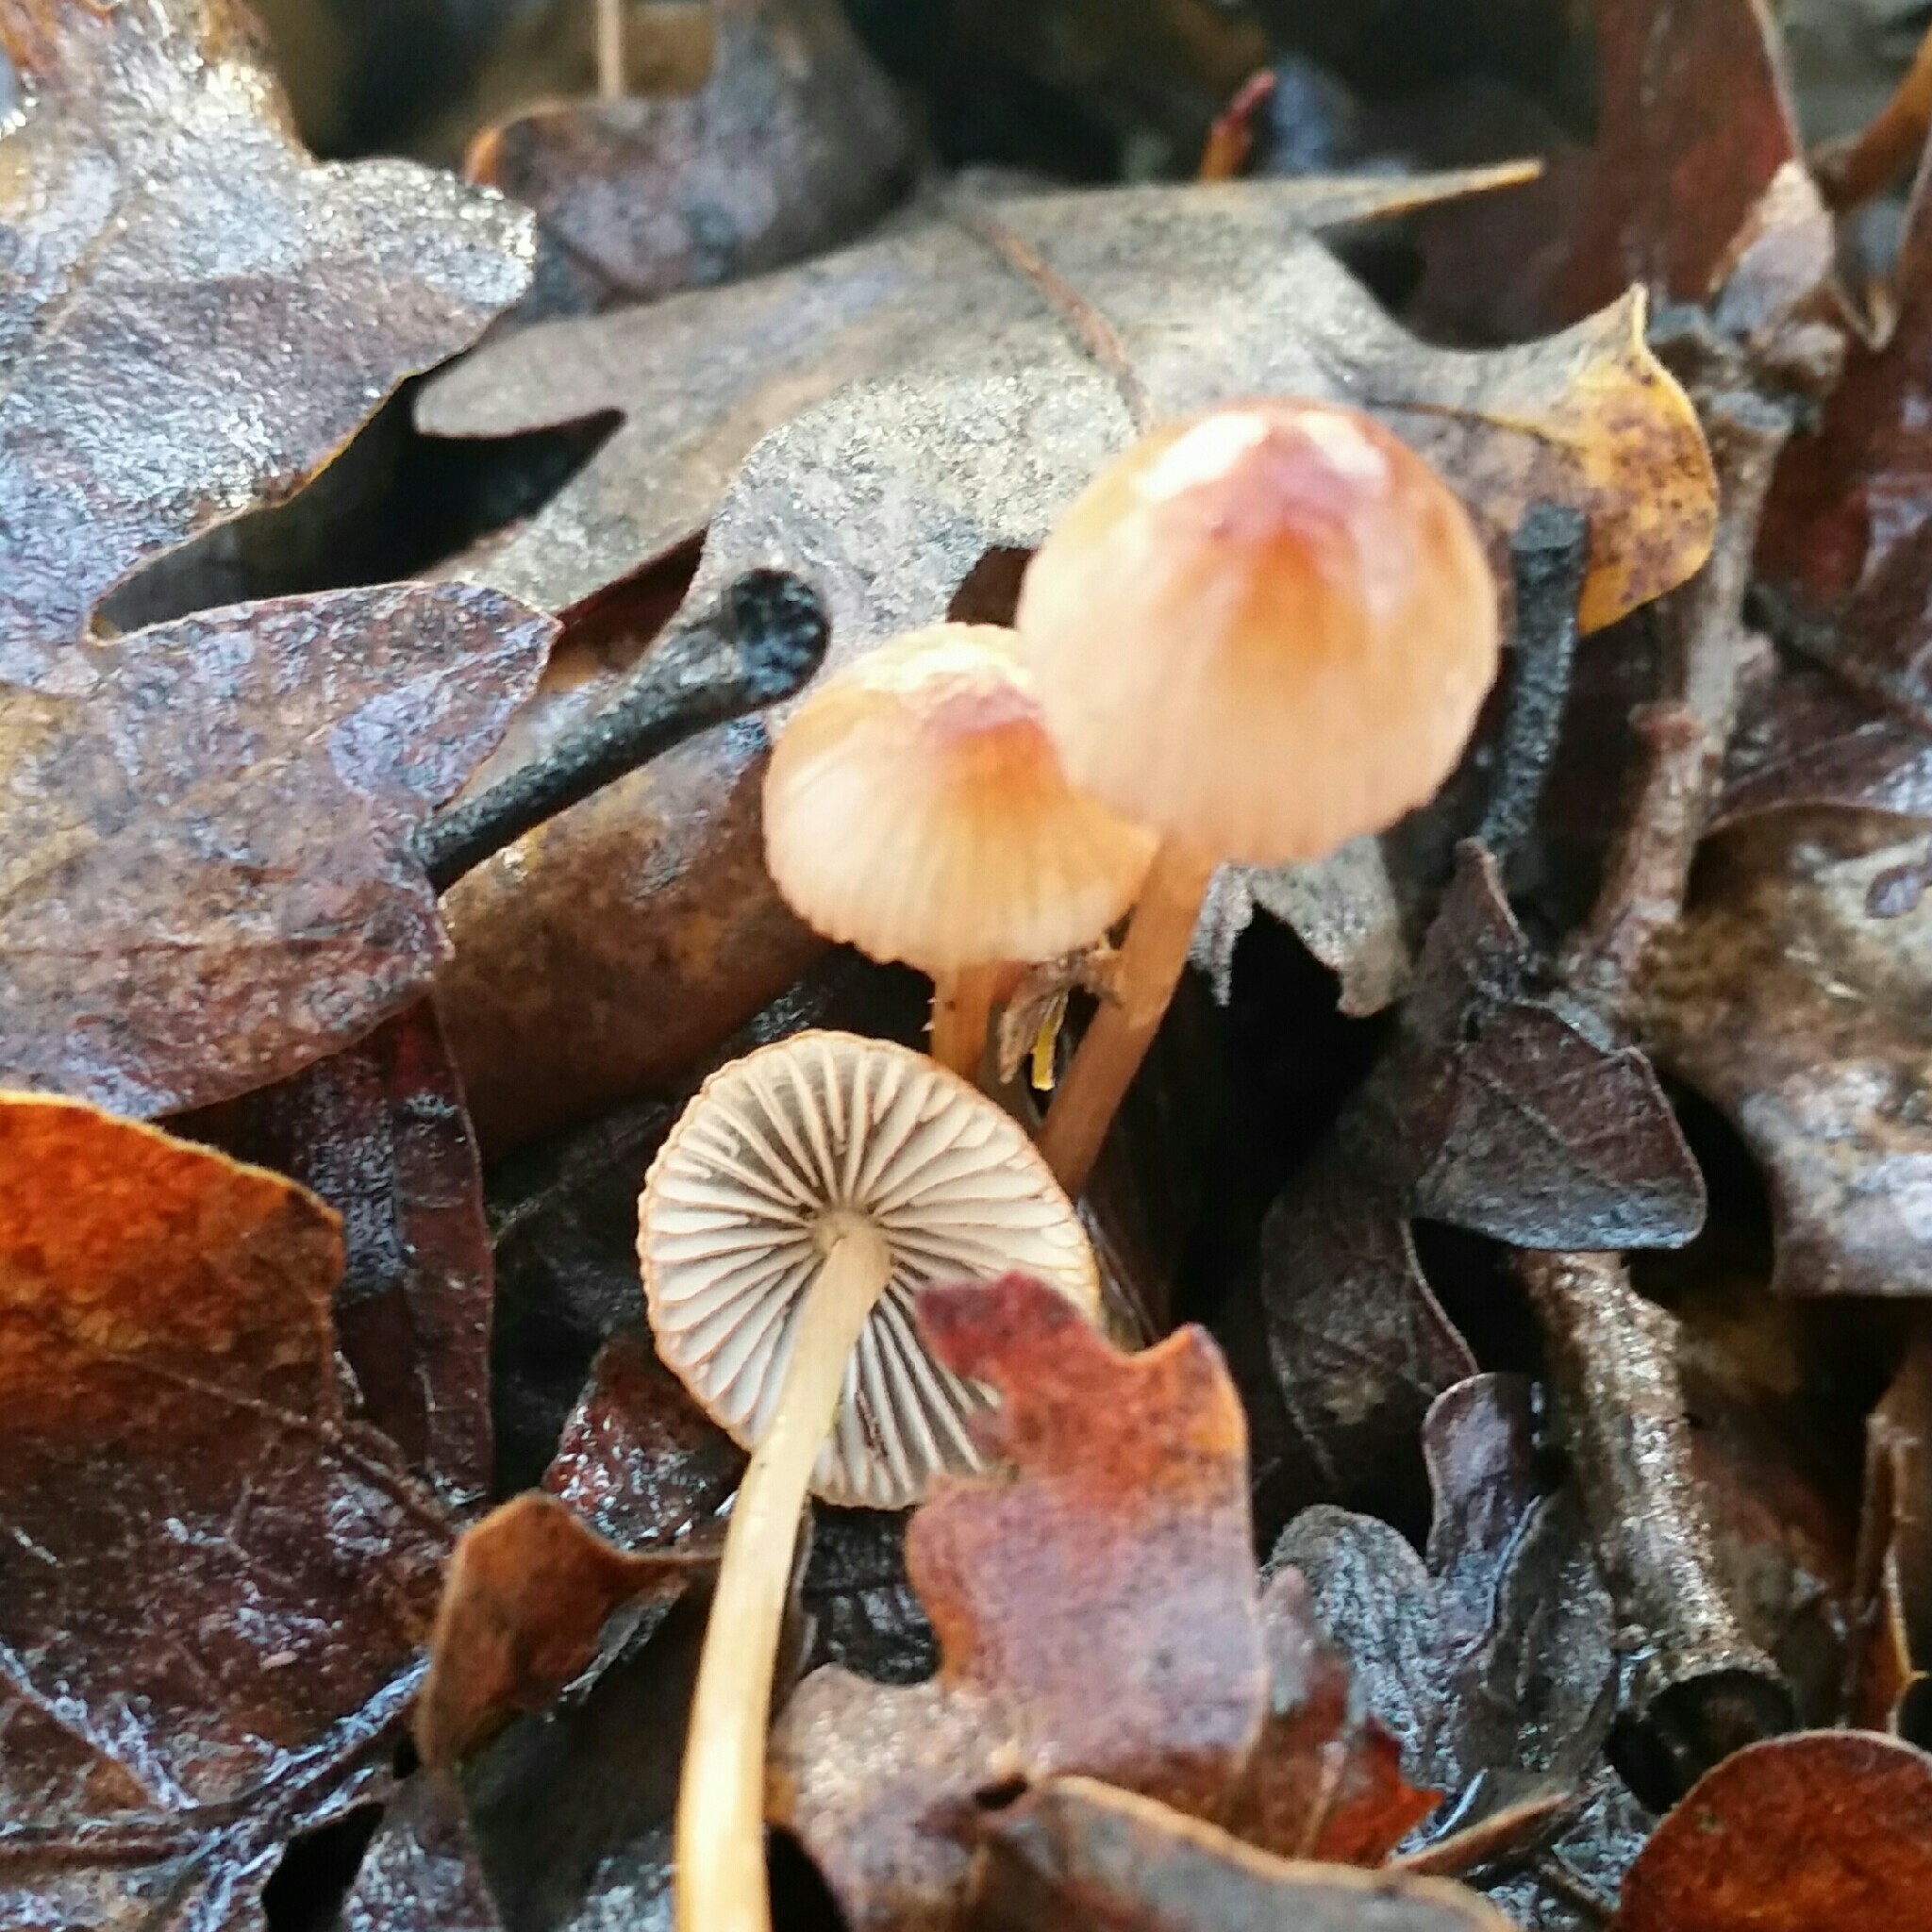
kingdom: Fungi
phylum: Basidiomycota
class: Agaricomycetes
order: Agaricales
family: Mycenaceae
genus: Mycena
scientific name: Mycena
